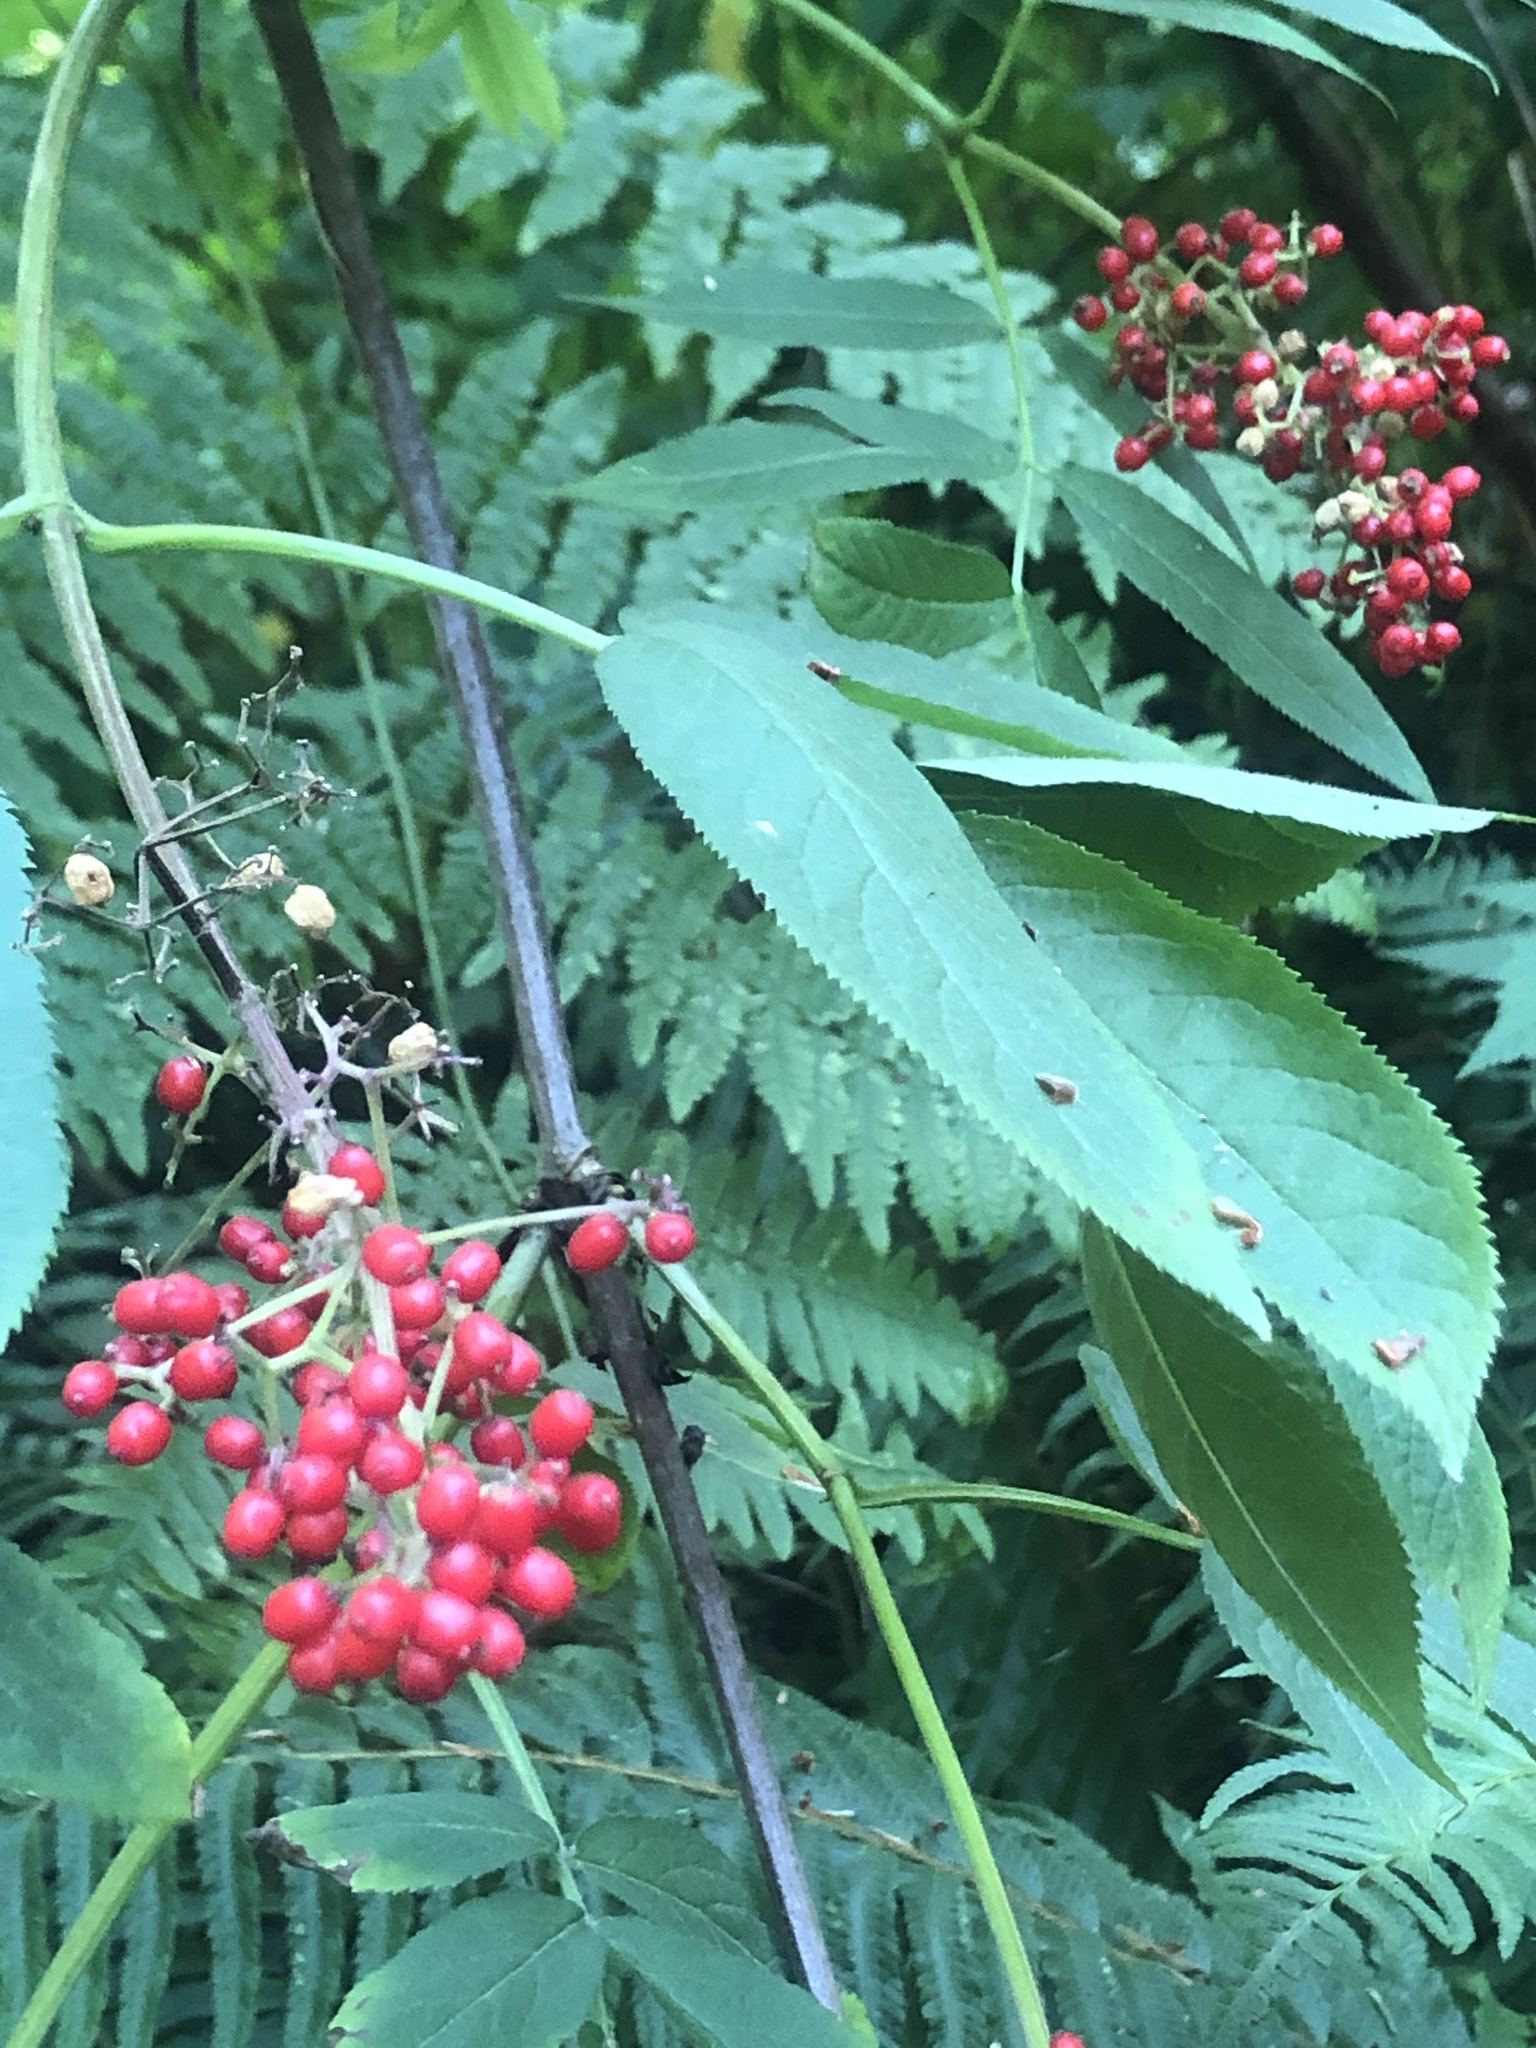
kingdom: Plantae
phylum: Tracheophyta
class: Magnoliopsida
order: Dipsacales
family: Viburnaceae
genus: Sambucus
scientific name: Sambucus racemosa
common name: Red-berried elder
